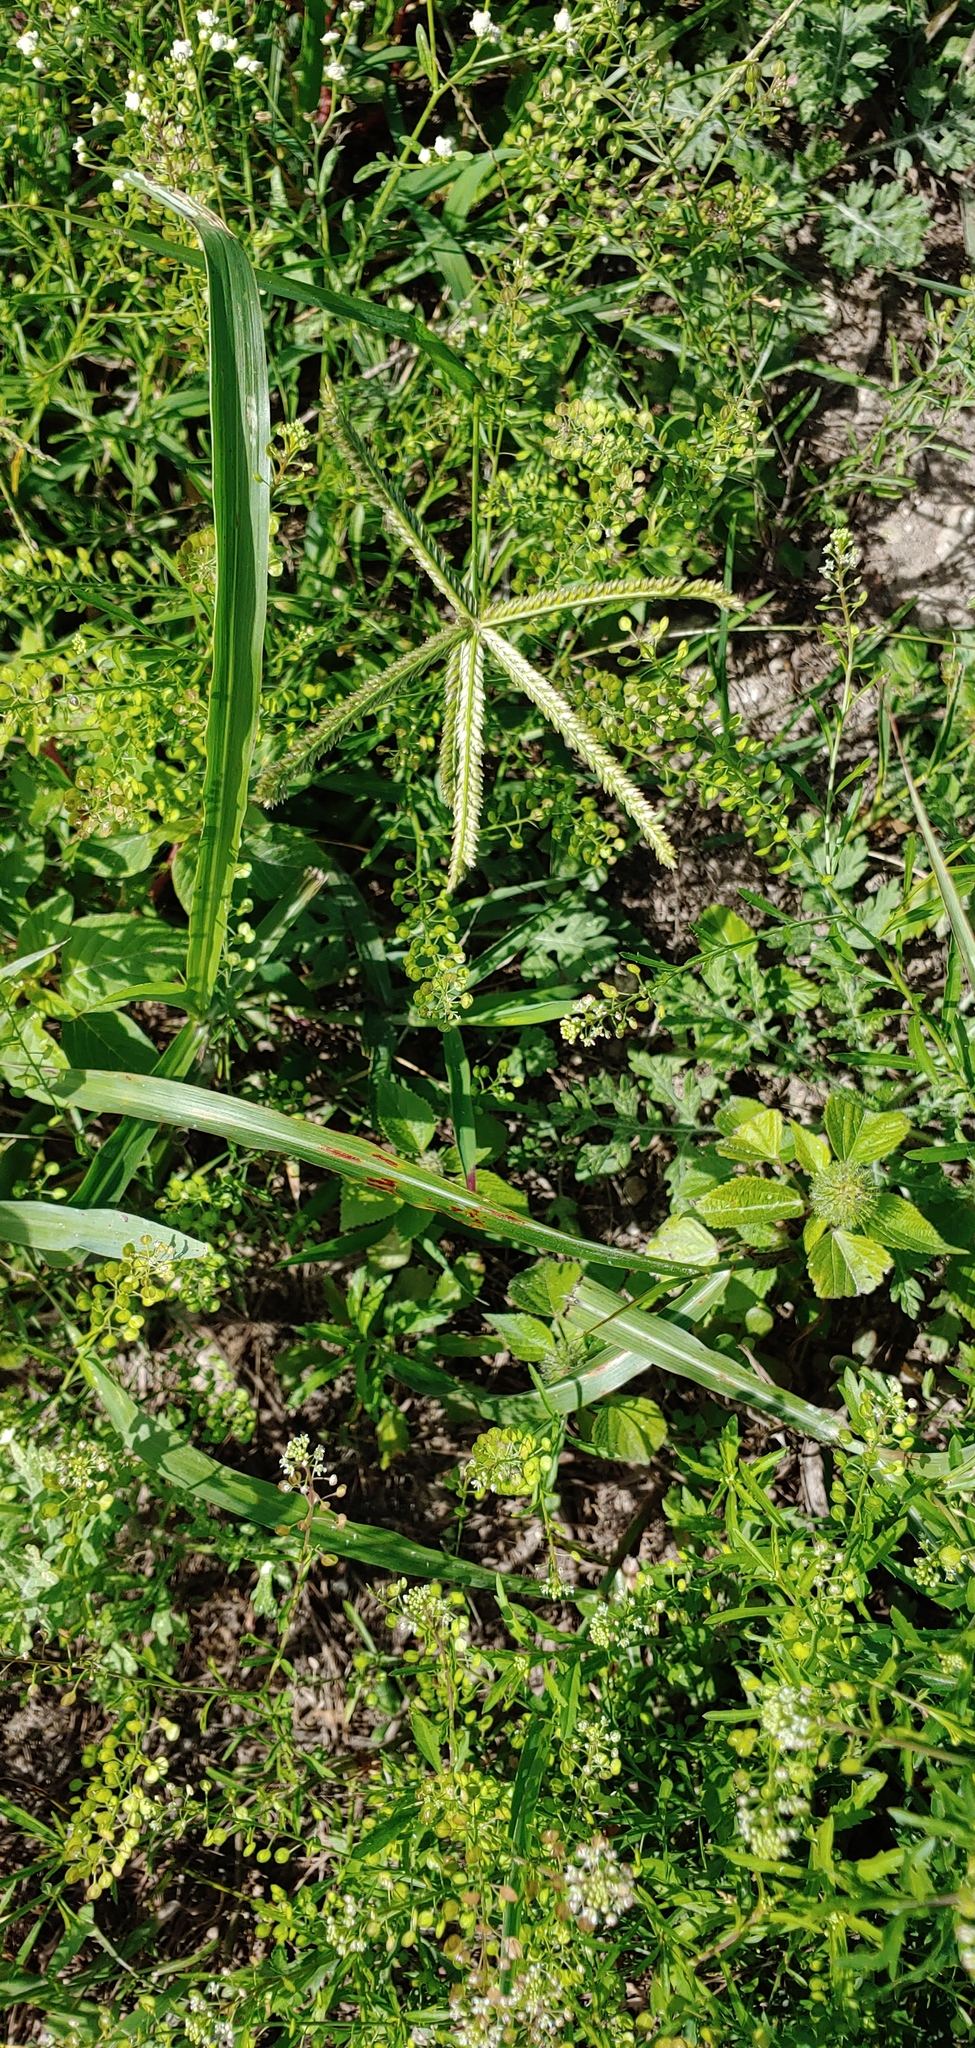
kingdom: Plantae
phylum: Tracheophyta
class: Liliopsida
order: Poales
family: Poaceae
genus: Eleusine
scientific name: Eleusine indica
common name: Yard-grass
